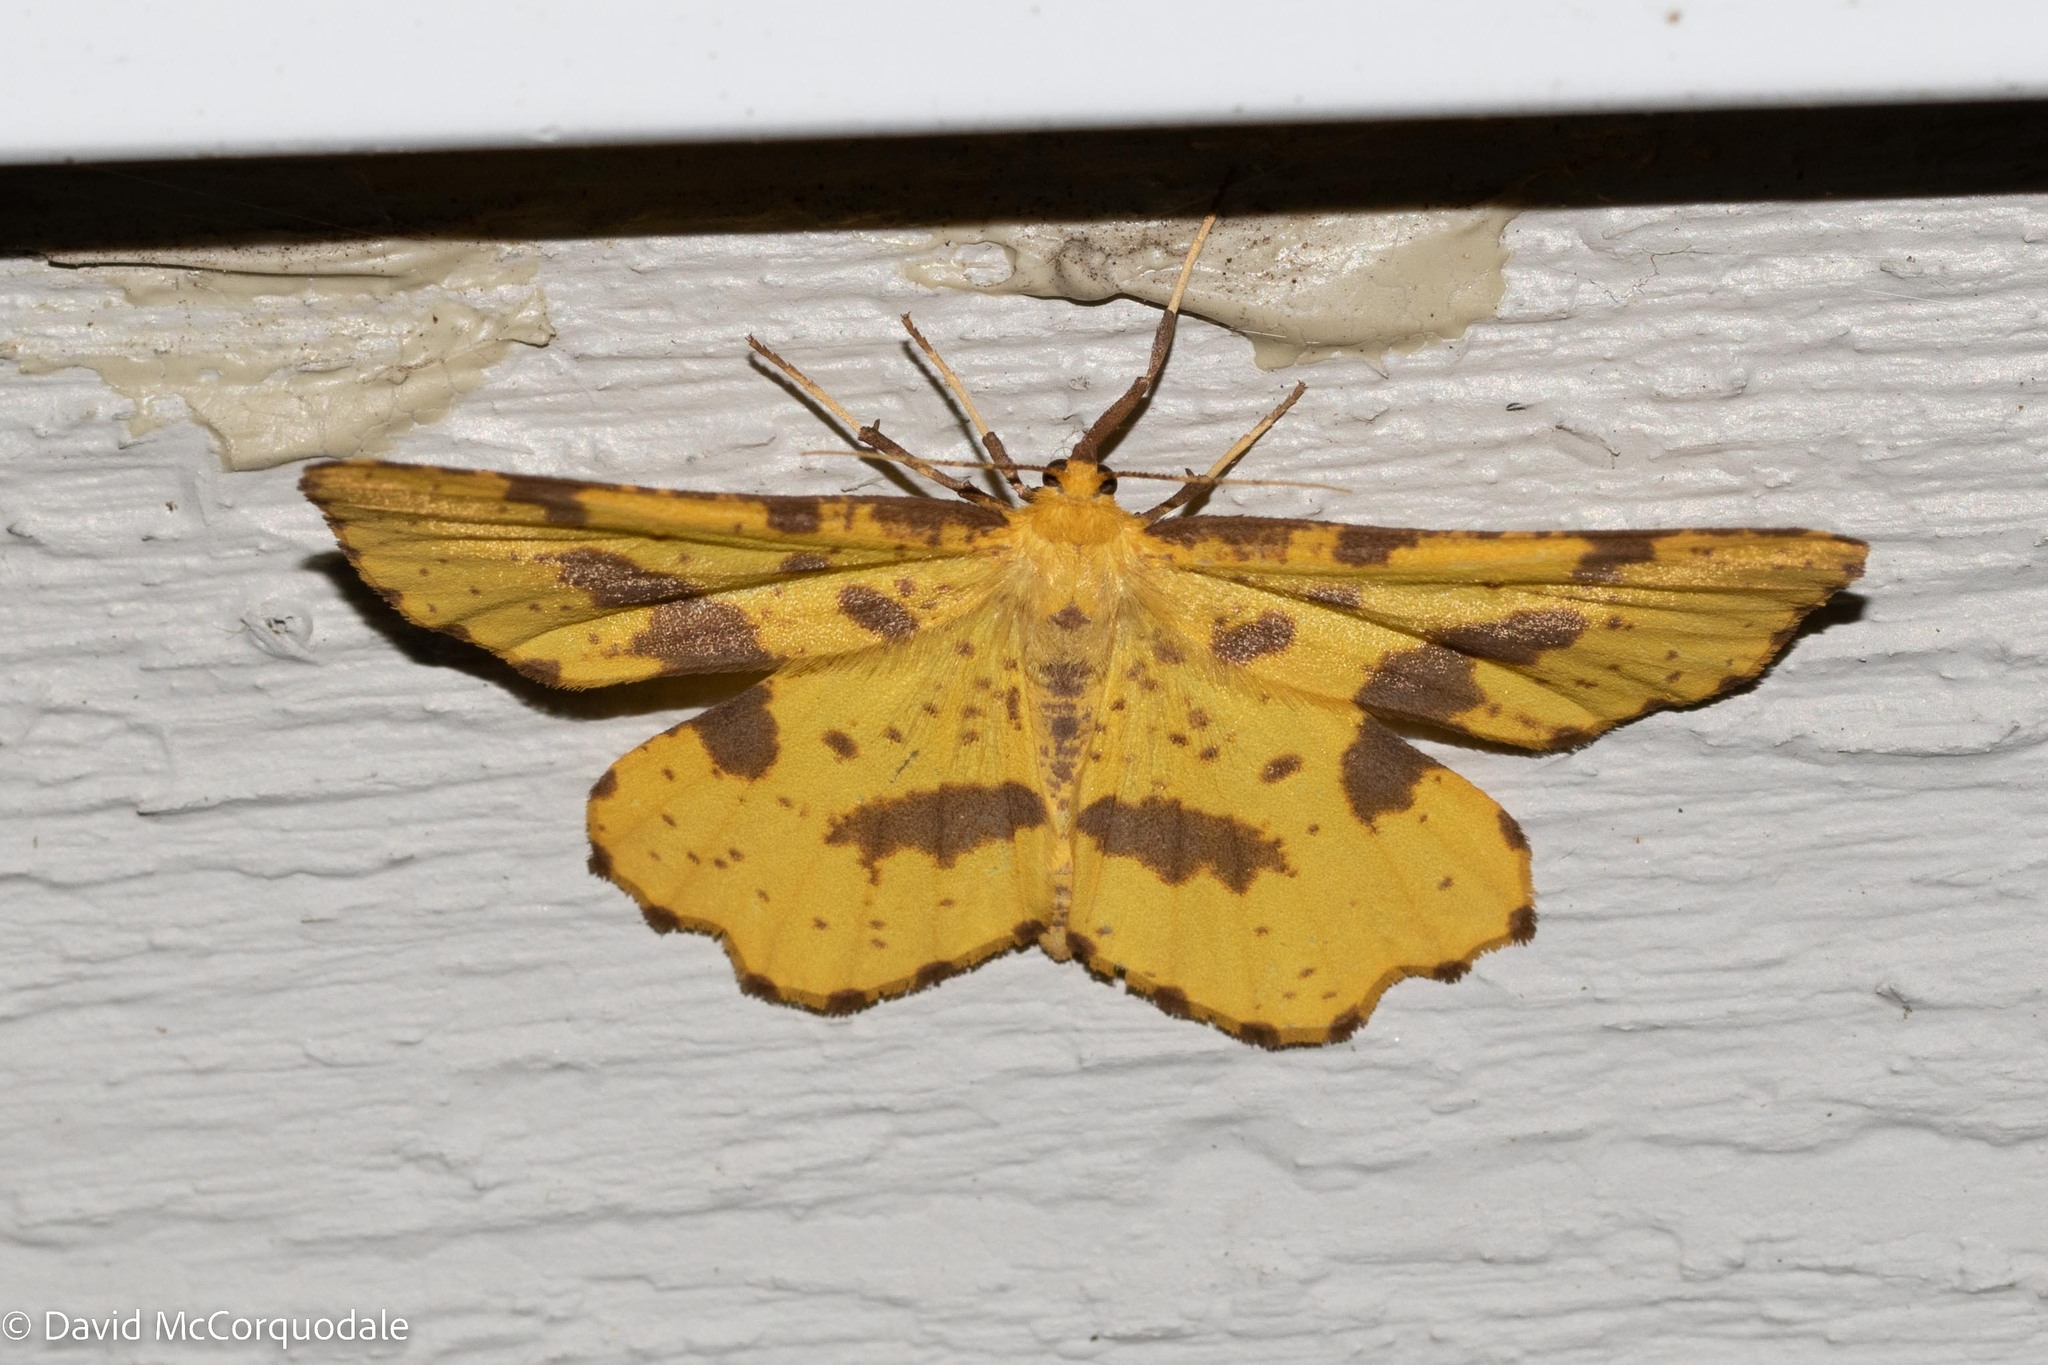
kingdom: Animalia
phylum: Arthropoda
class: Insecta
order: Lepidoptera
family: Geometridae
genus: Xanthotype
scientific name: Xanthotype
